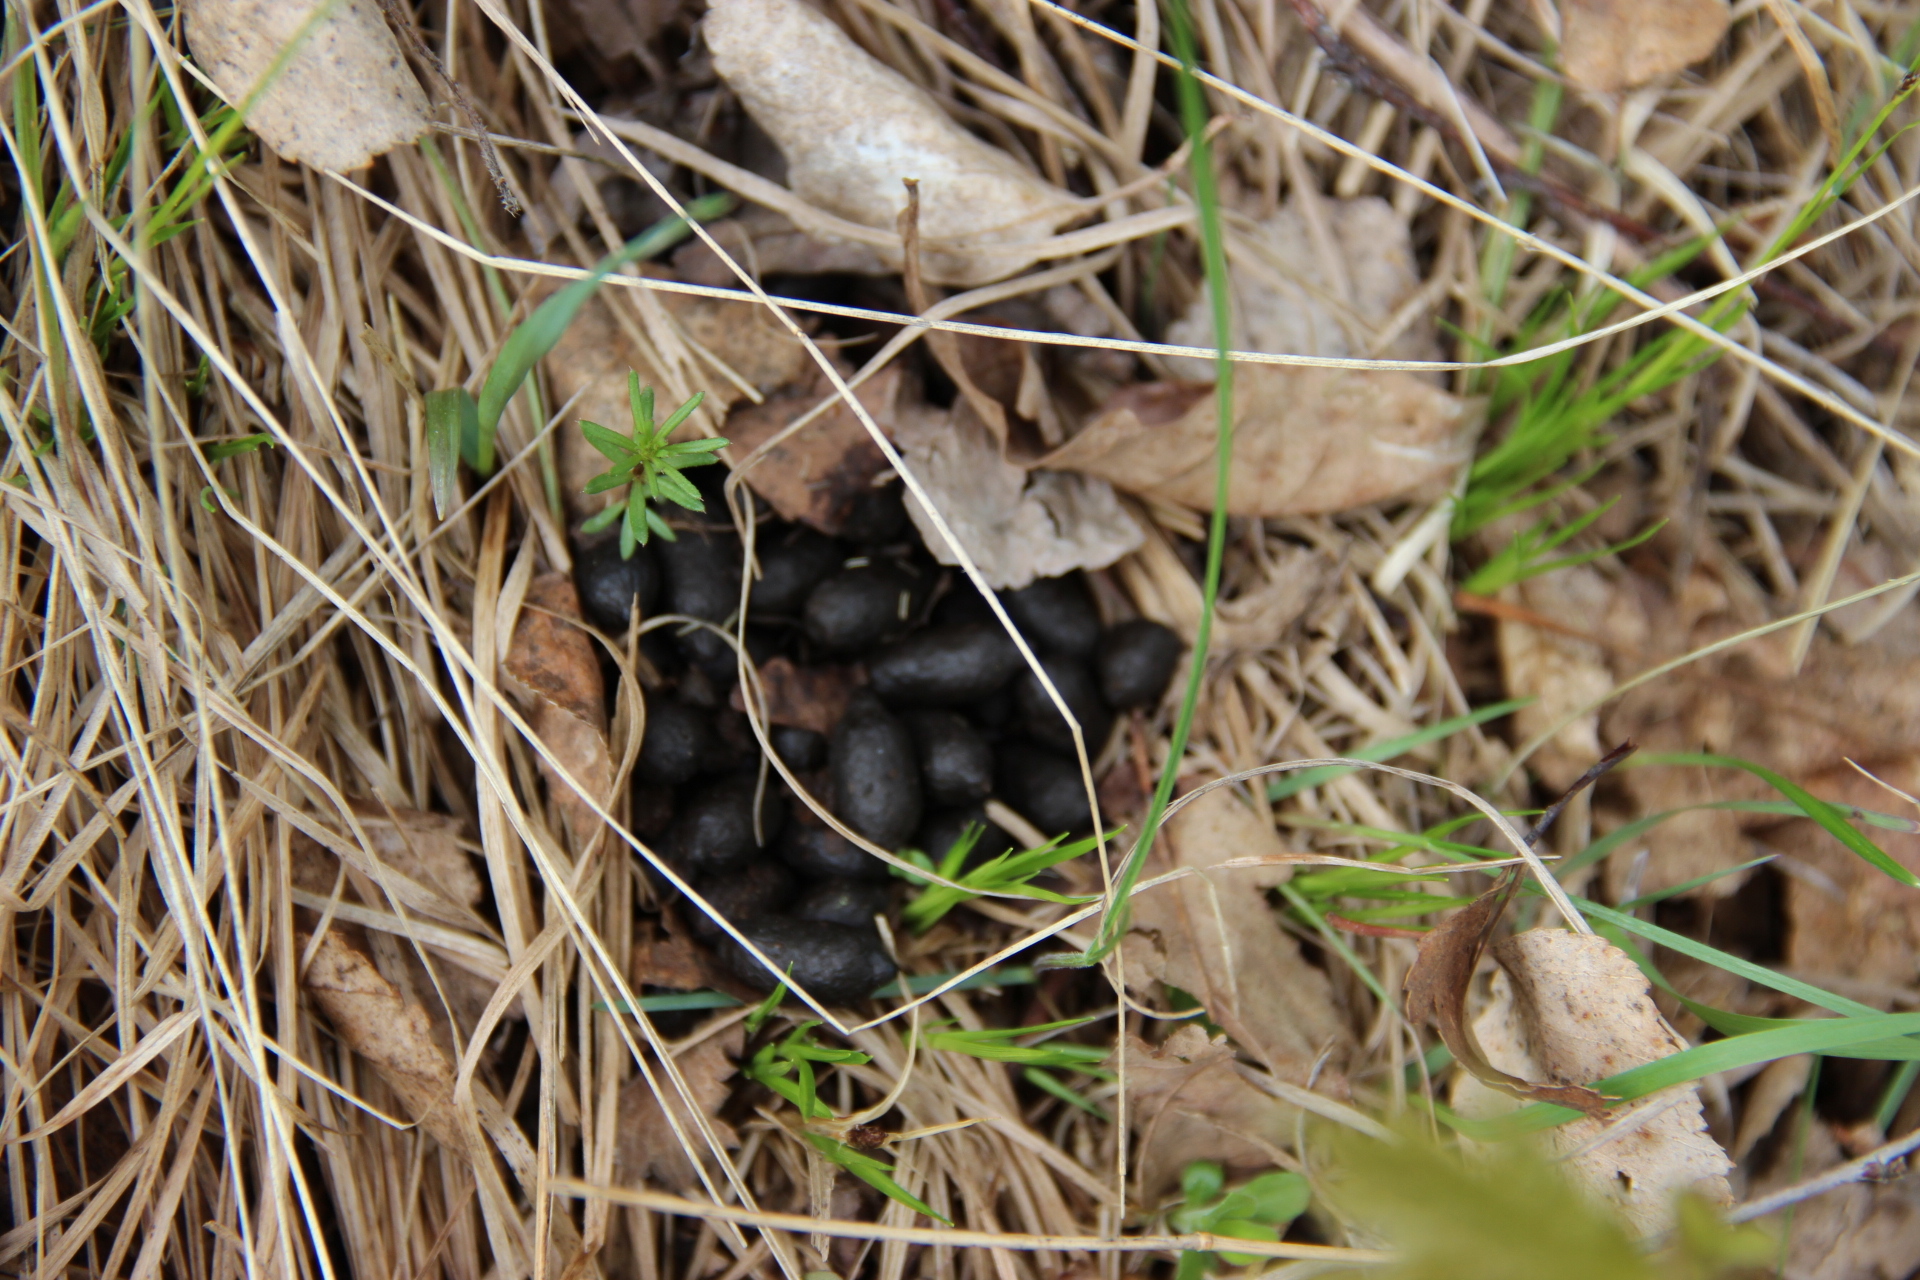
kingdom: Animalia
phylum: Chordata
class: Mammalia
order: Artiodactyla
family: Cervidae
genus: Alces
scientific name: Alces alces
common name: Moose
